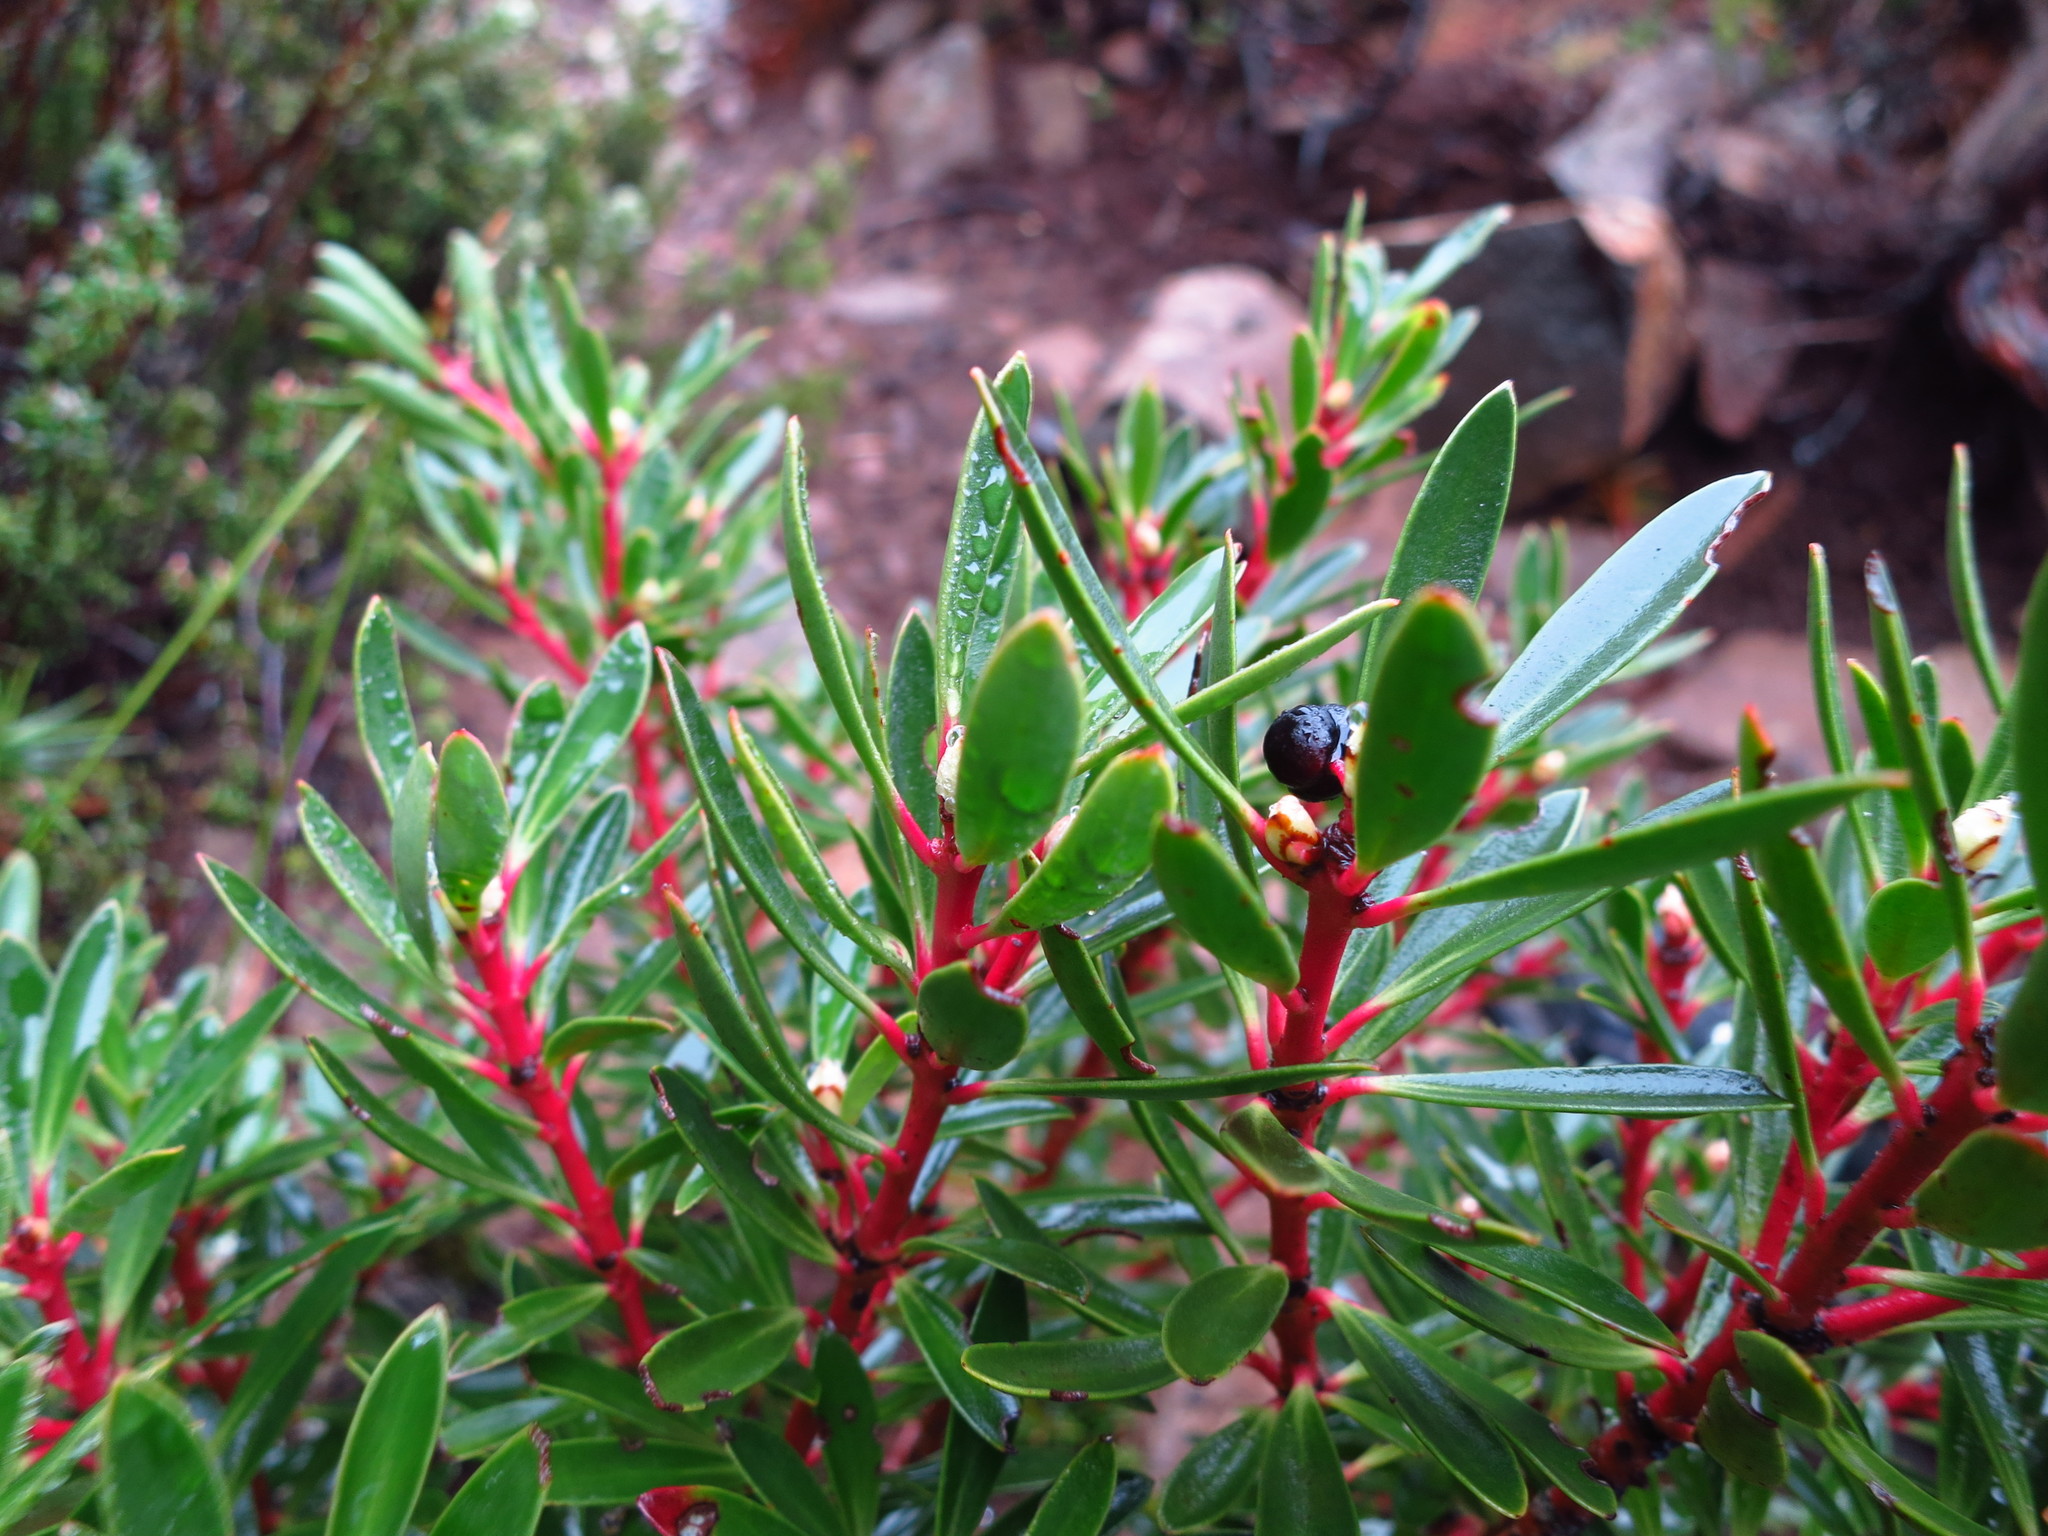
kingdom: Plantae
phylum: Tracheophyta
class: Magnoliopsida
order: Canellales
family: Winteraceae
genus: Drimys
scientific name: Drimys aromatica
